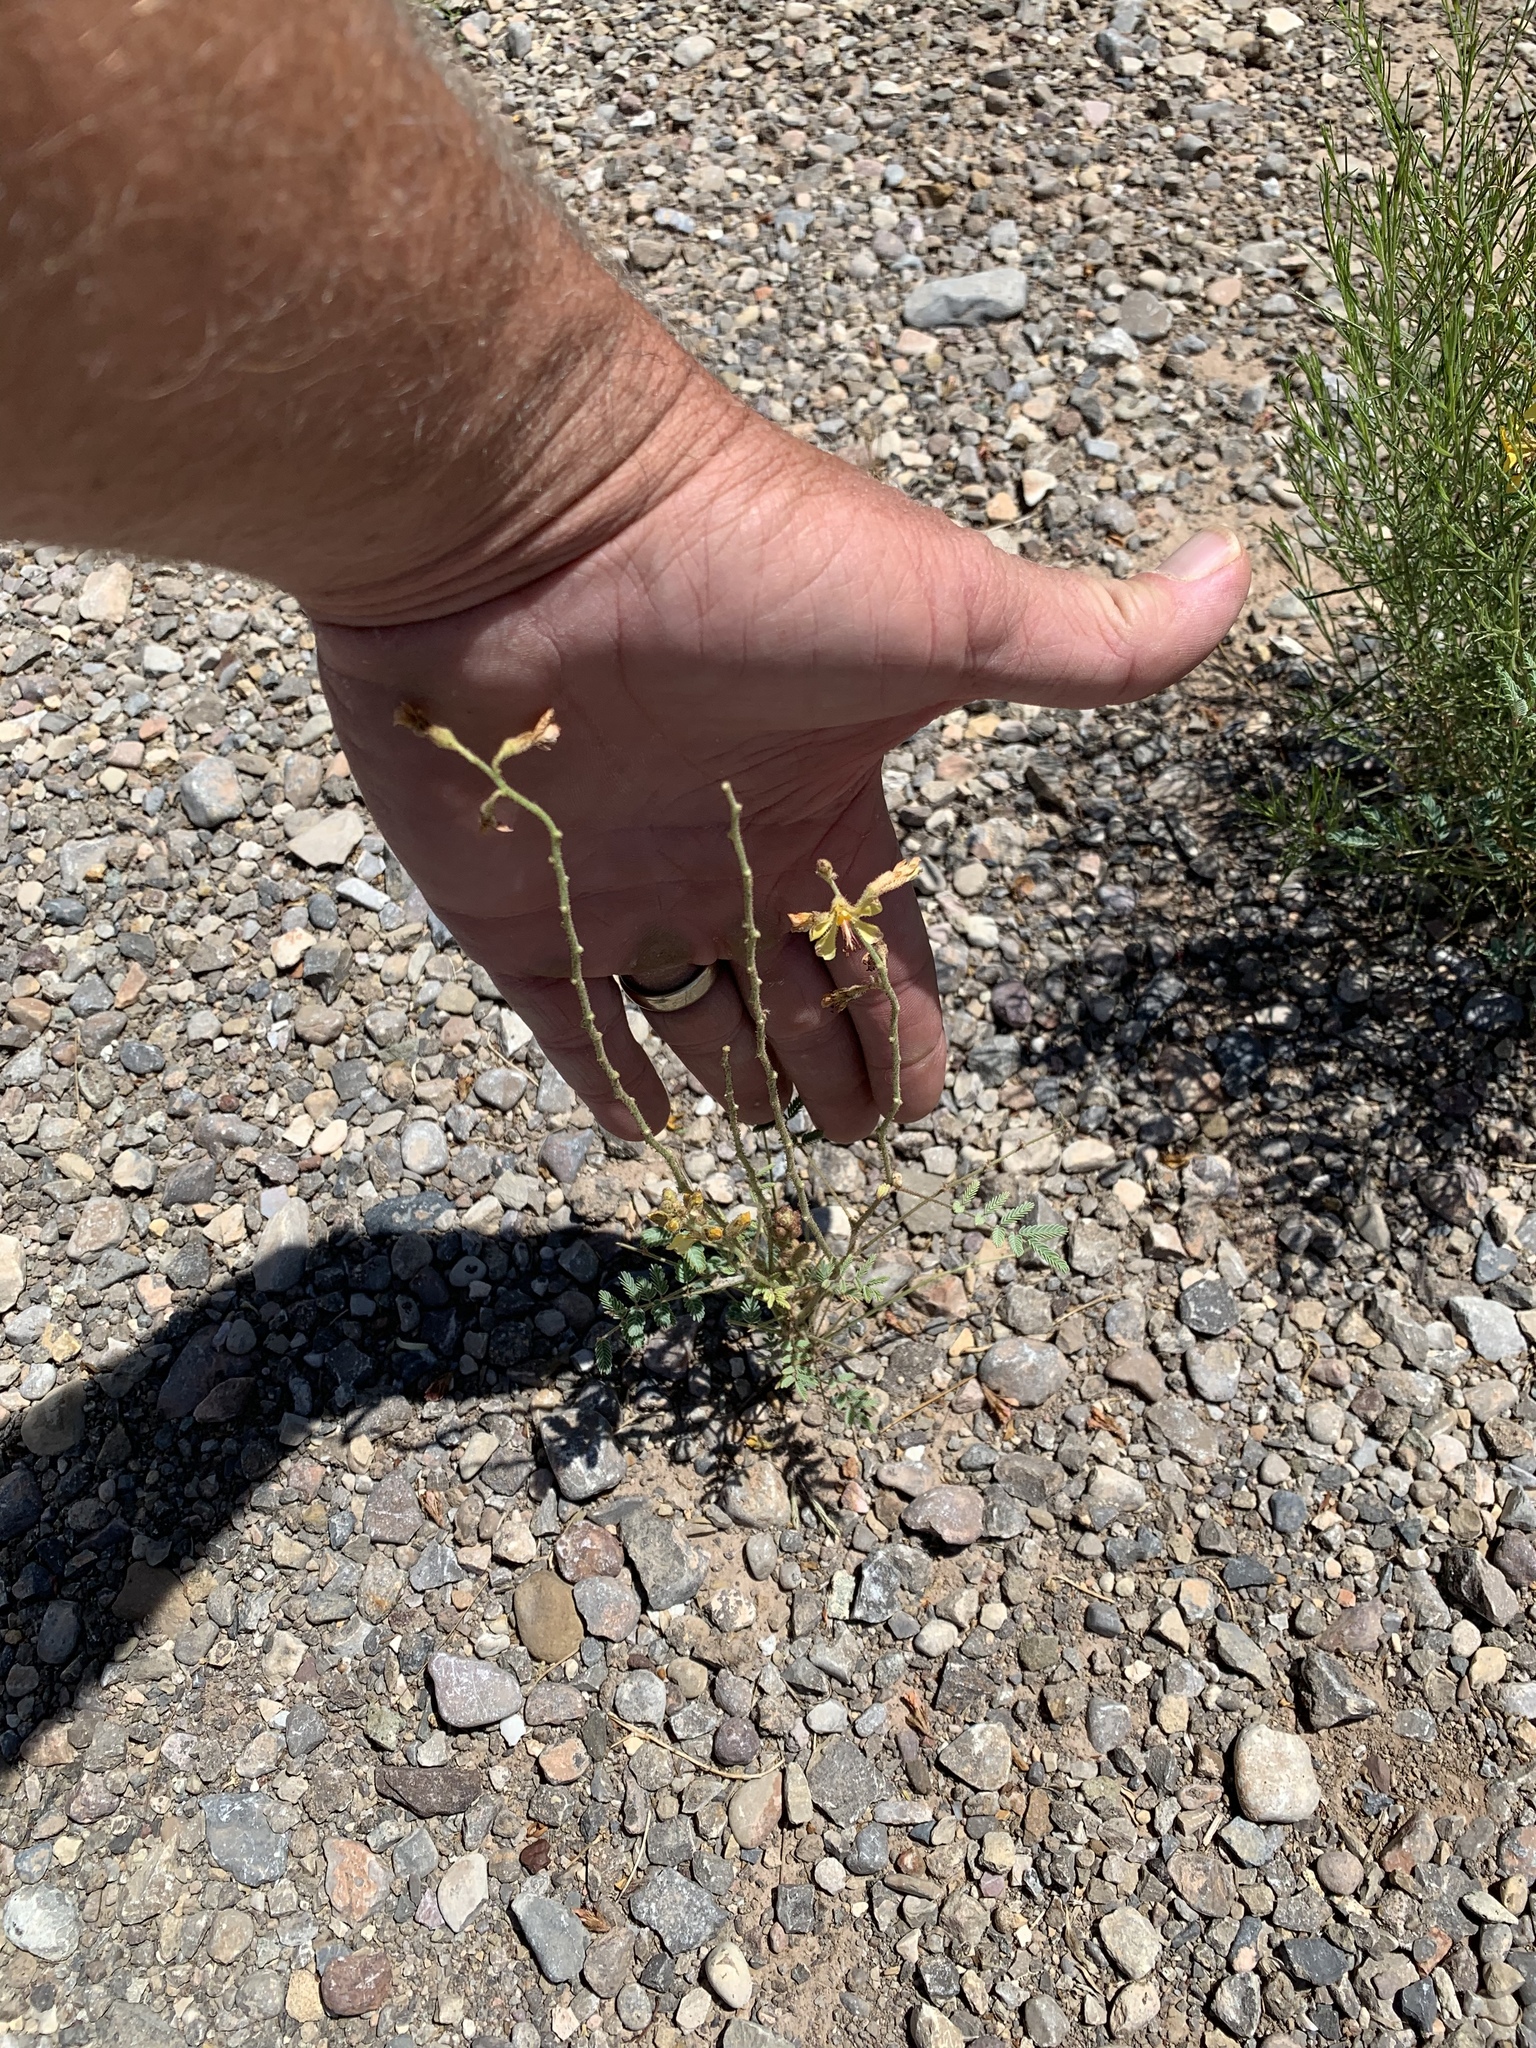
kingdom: Plantae
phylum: Tracheophyta
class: Magnoliopsida
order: Fabales
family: Fabaceae
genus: Hoffmannseggia
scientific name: Hoffmannseggia glauca
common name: Pignut
